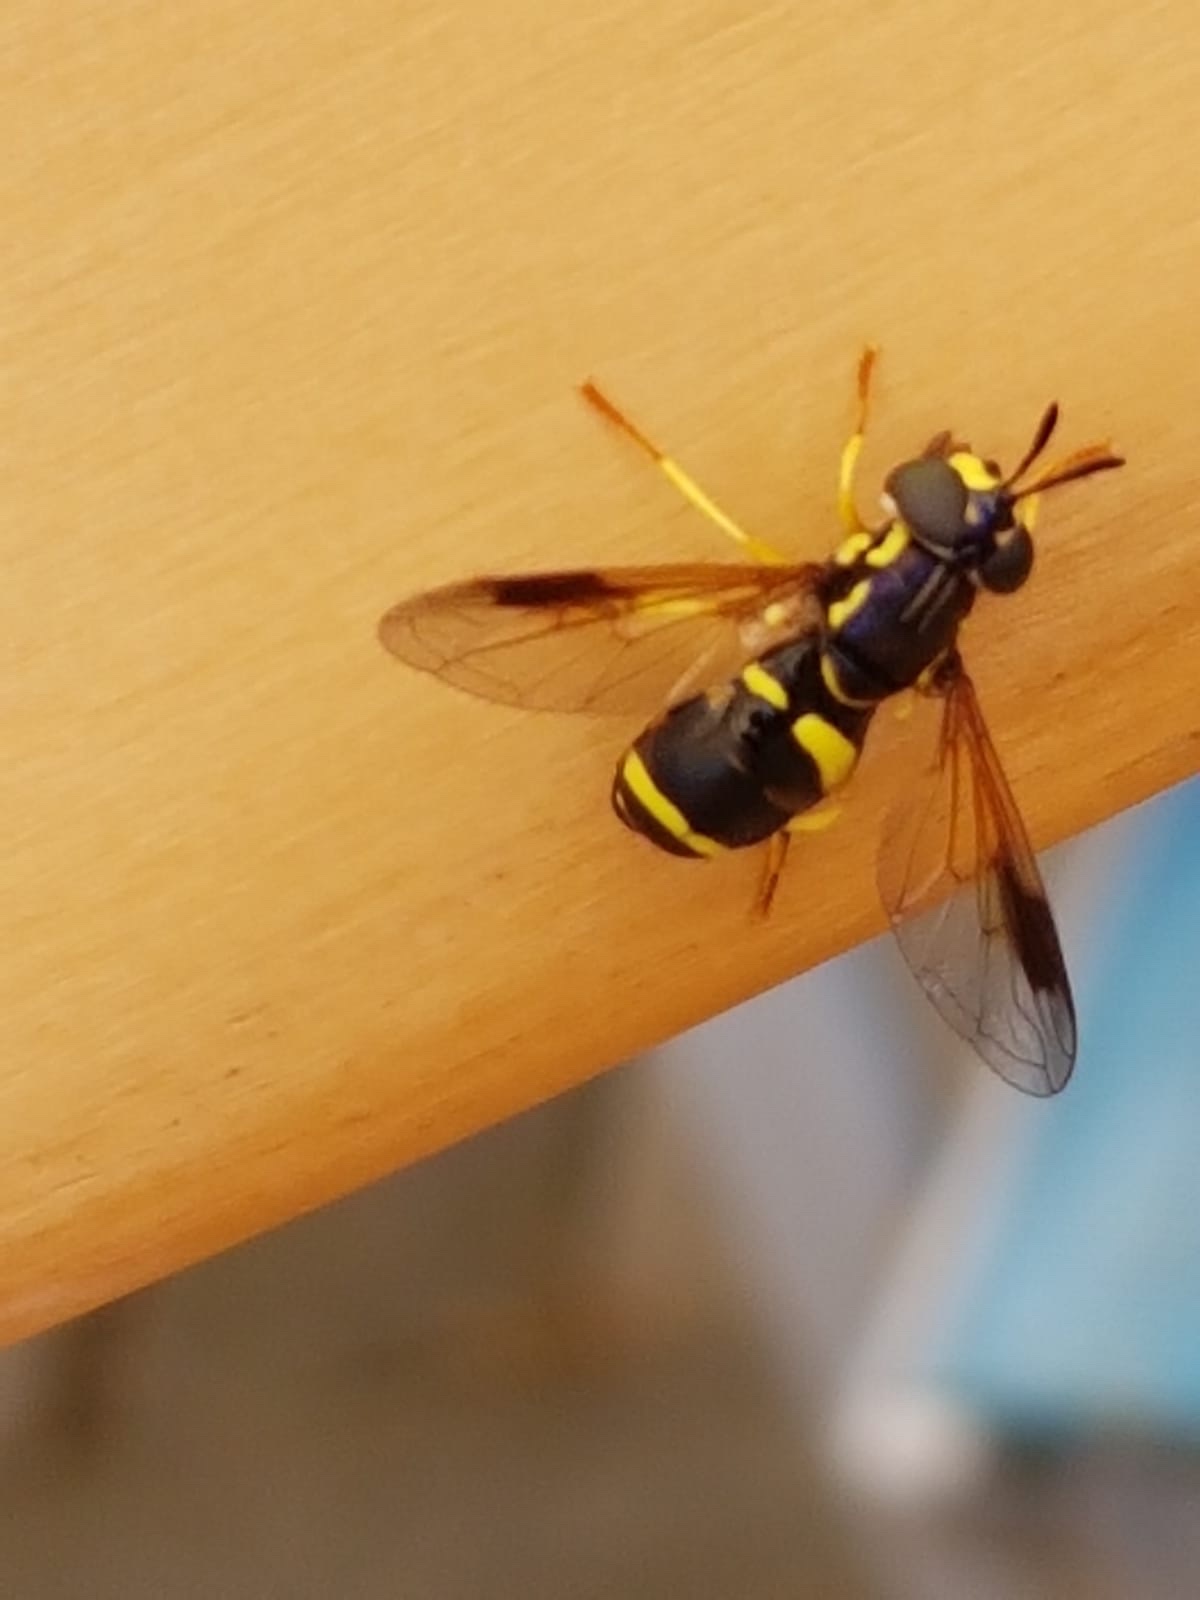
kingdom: Animalia
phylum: Arthropoda
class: Insecta
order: Diptera
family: Syrphidae
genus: Chrysotoxum
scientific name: Chrysotoxum bicincta
